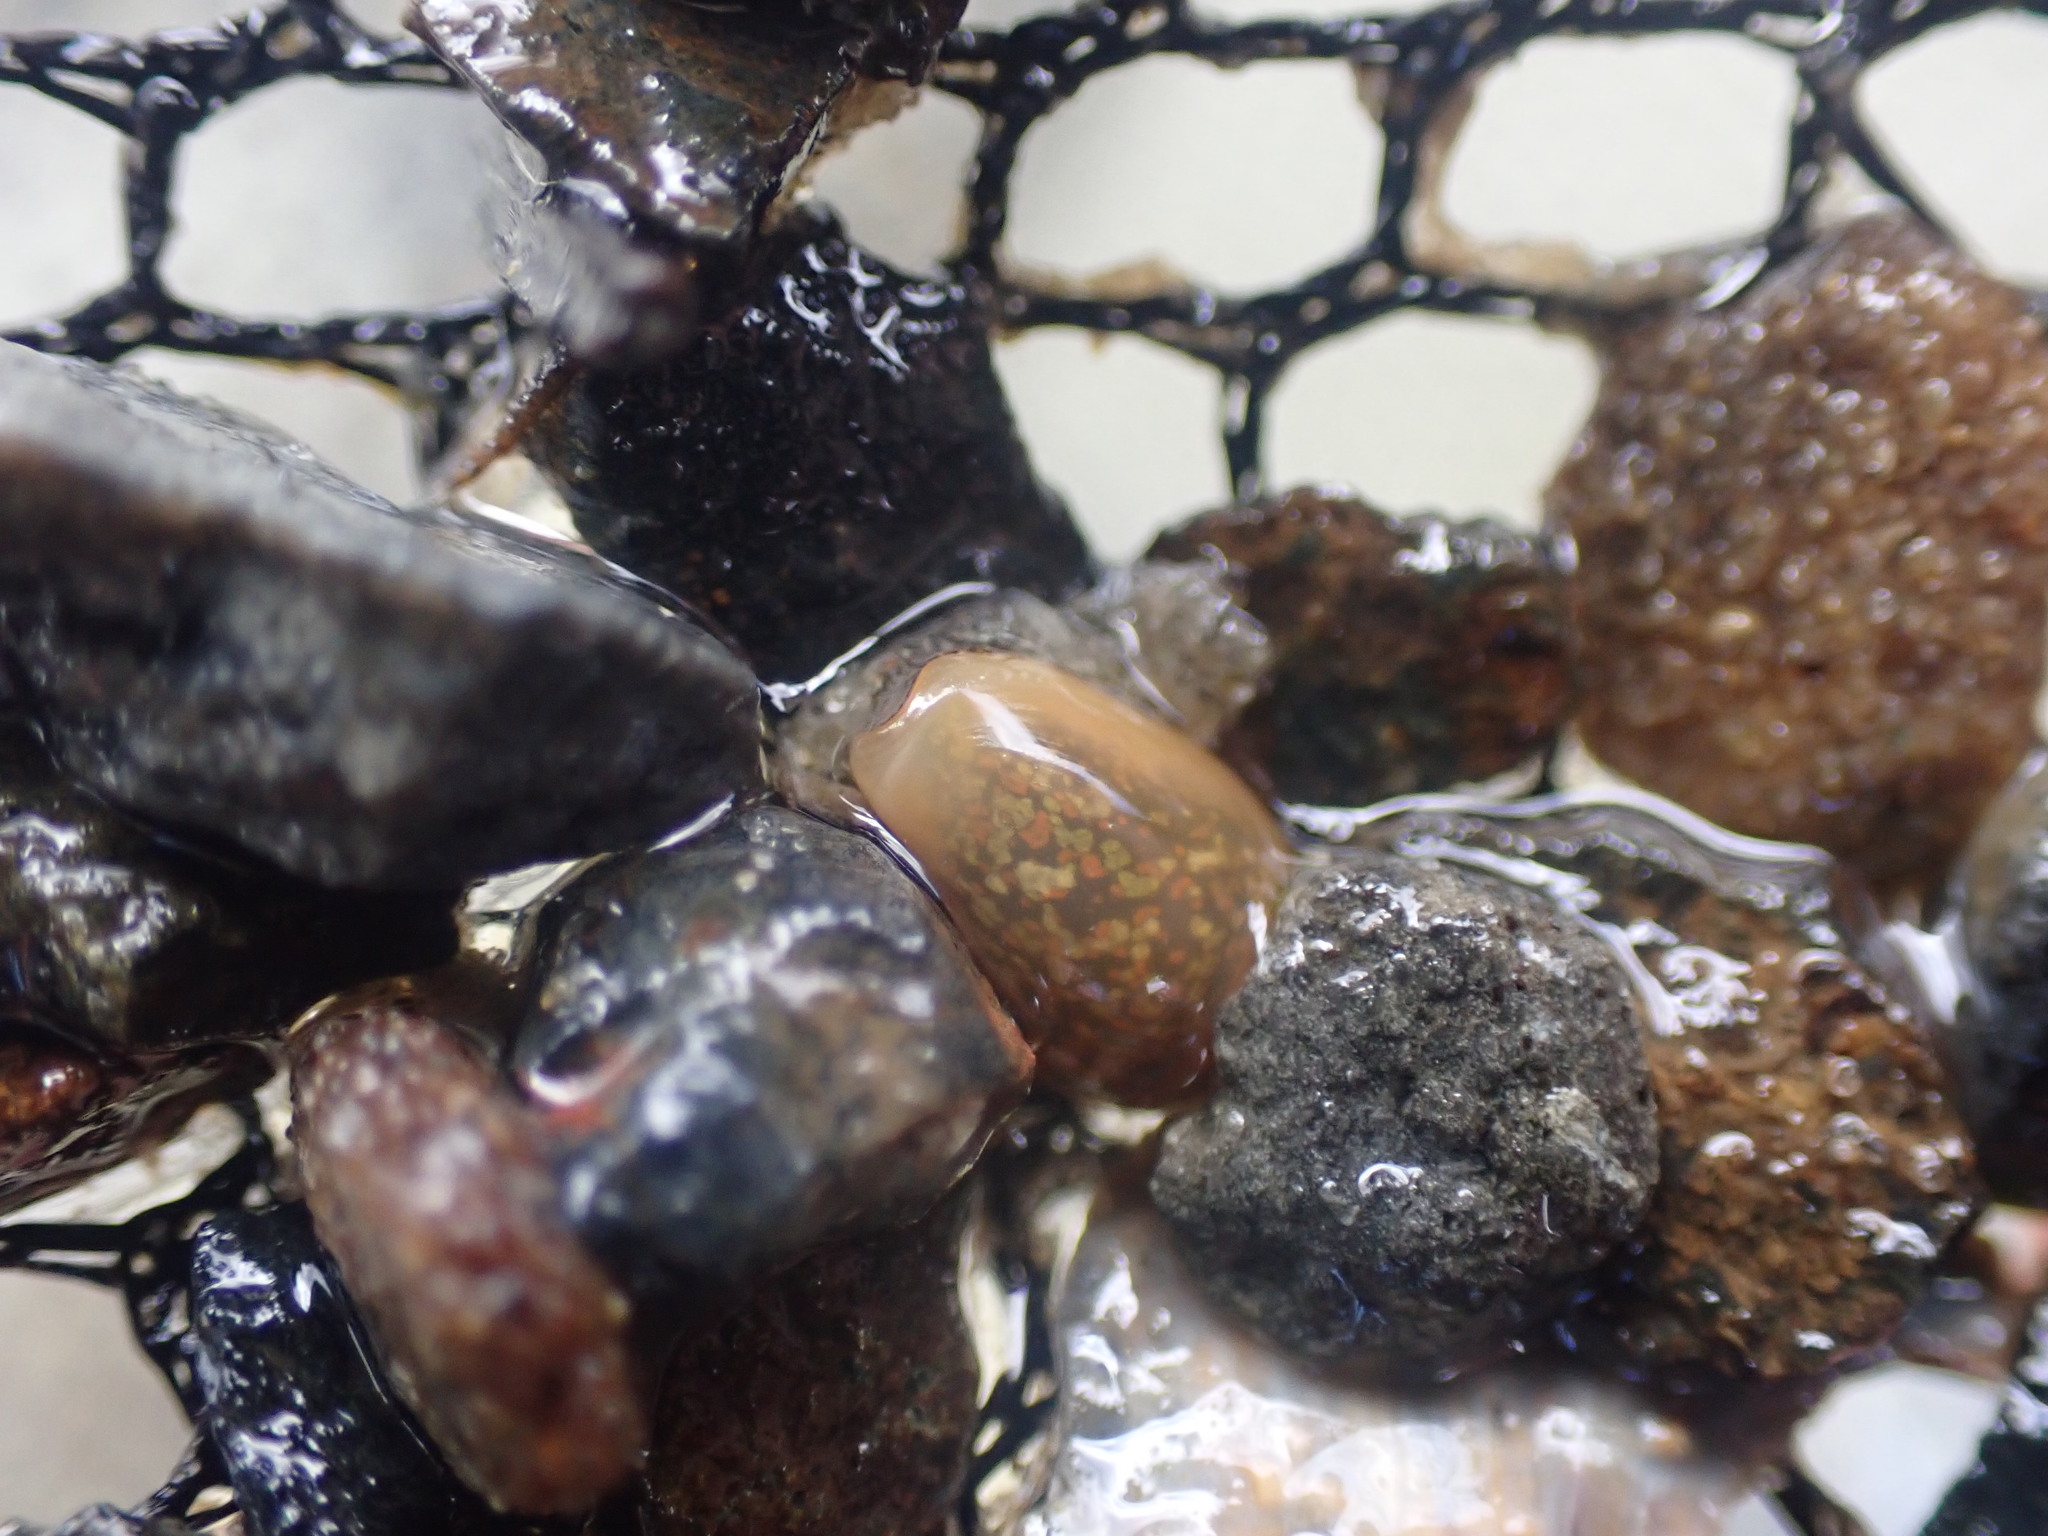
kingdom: Animalia
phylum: Mollusca
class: Gastropoda
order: Neogastropoda
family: Marginellidae
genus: Mesoginella
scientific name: Mesoginella
